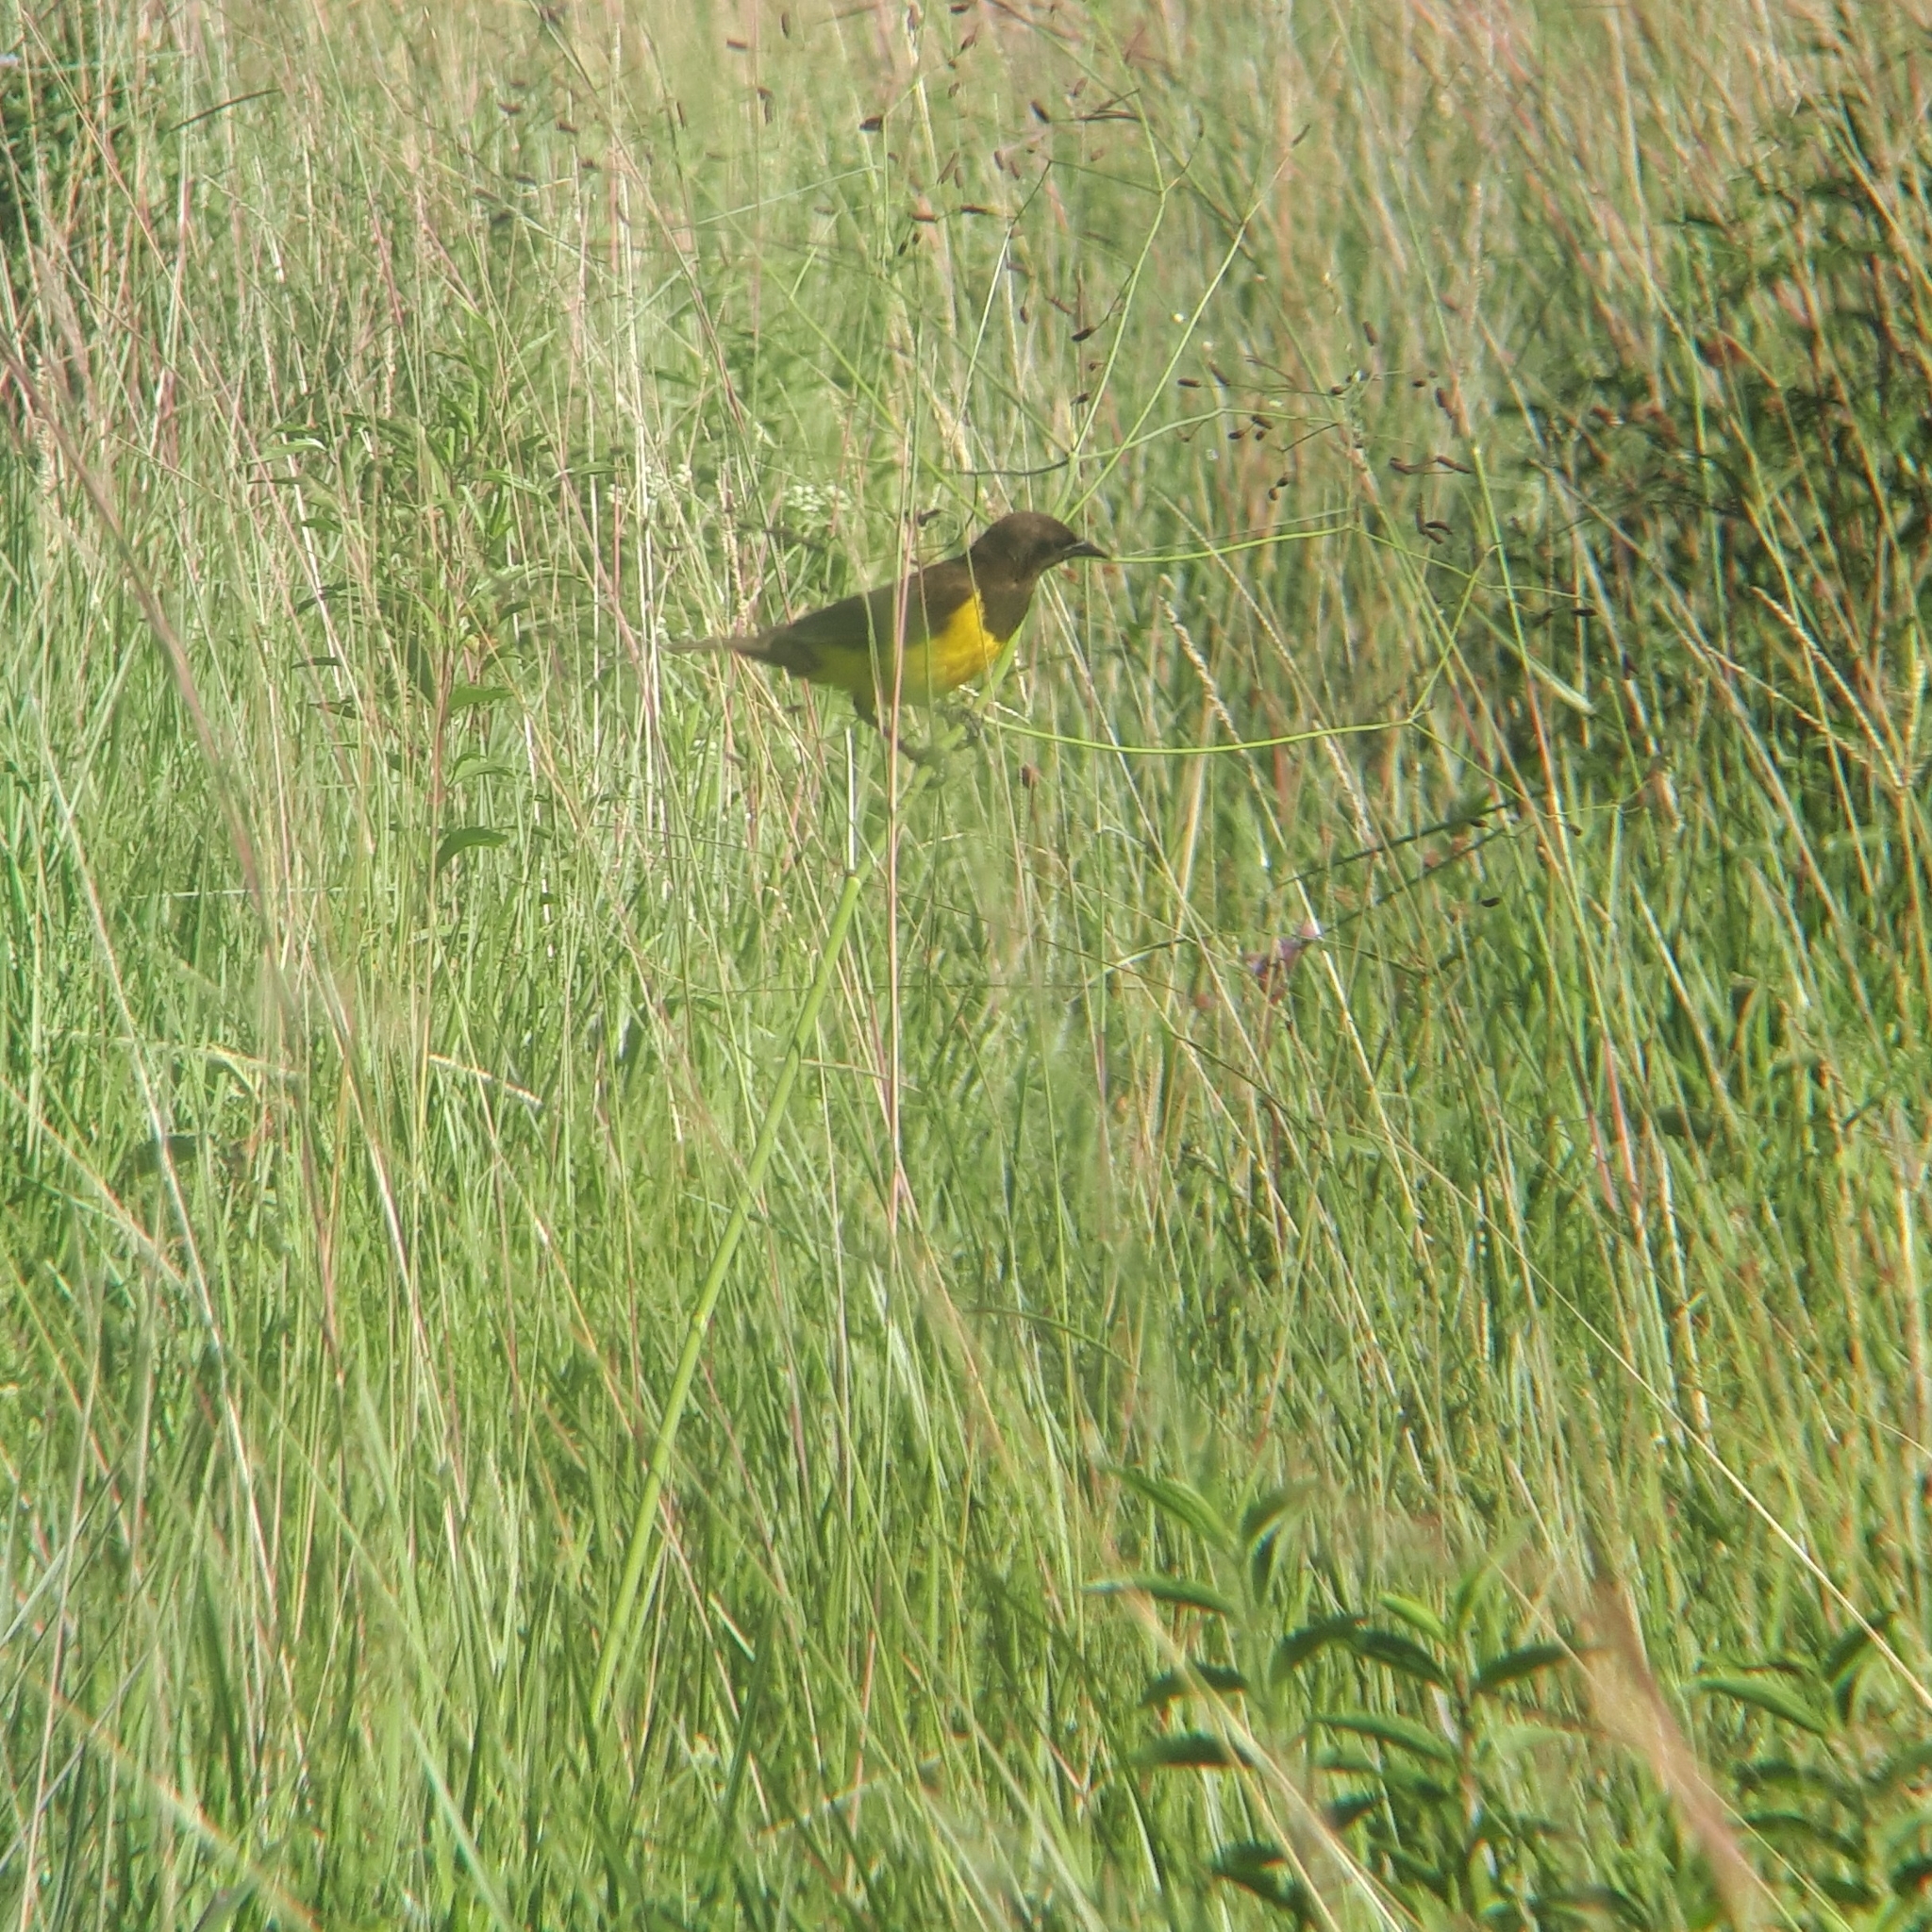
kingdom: Animalia
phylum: Chordata
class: Aves
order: Passeriformes
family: Icteridae
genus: Pseudoleistes
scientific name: Pseudoleistes guirahuro
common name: Yellow-rumped marshbird
